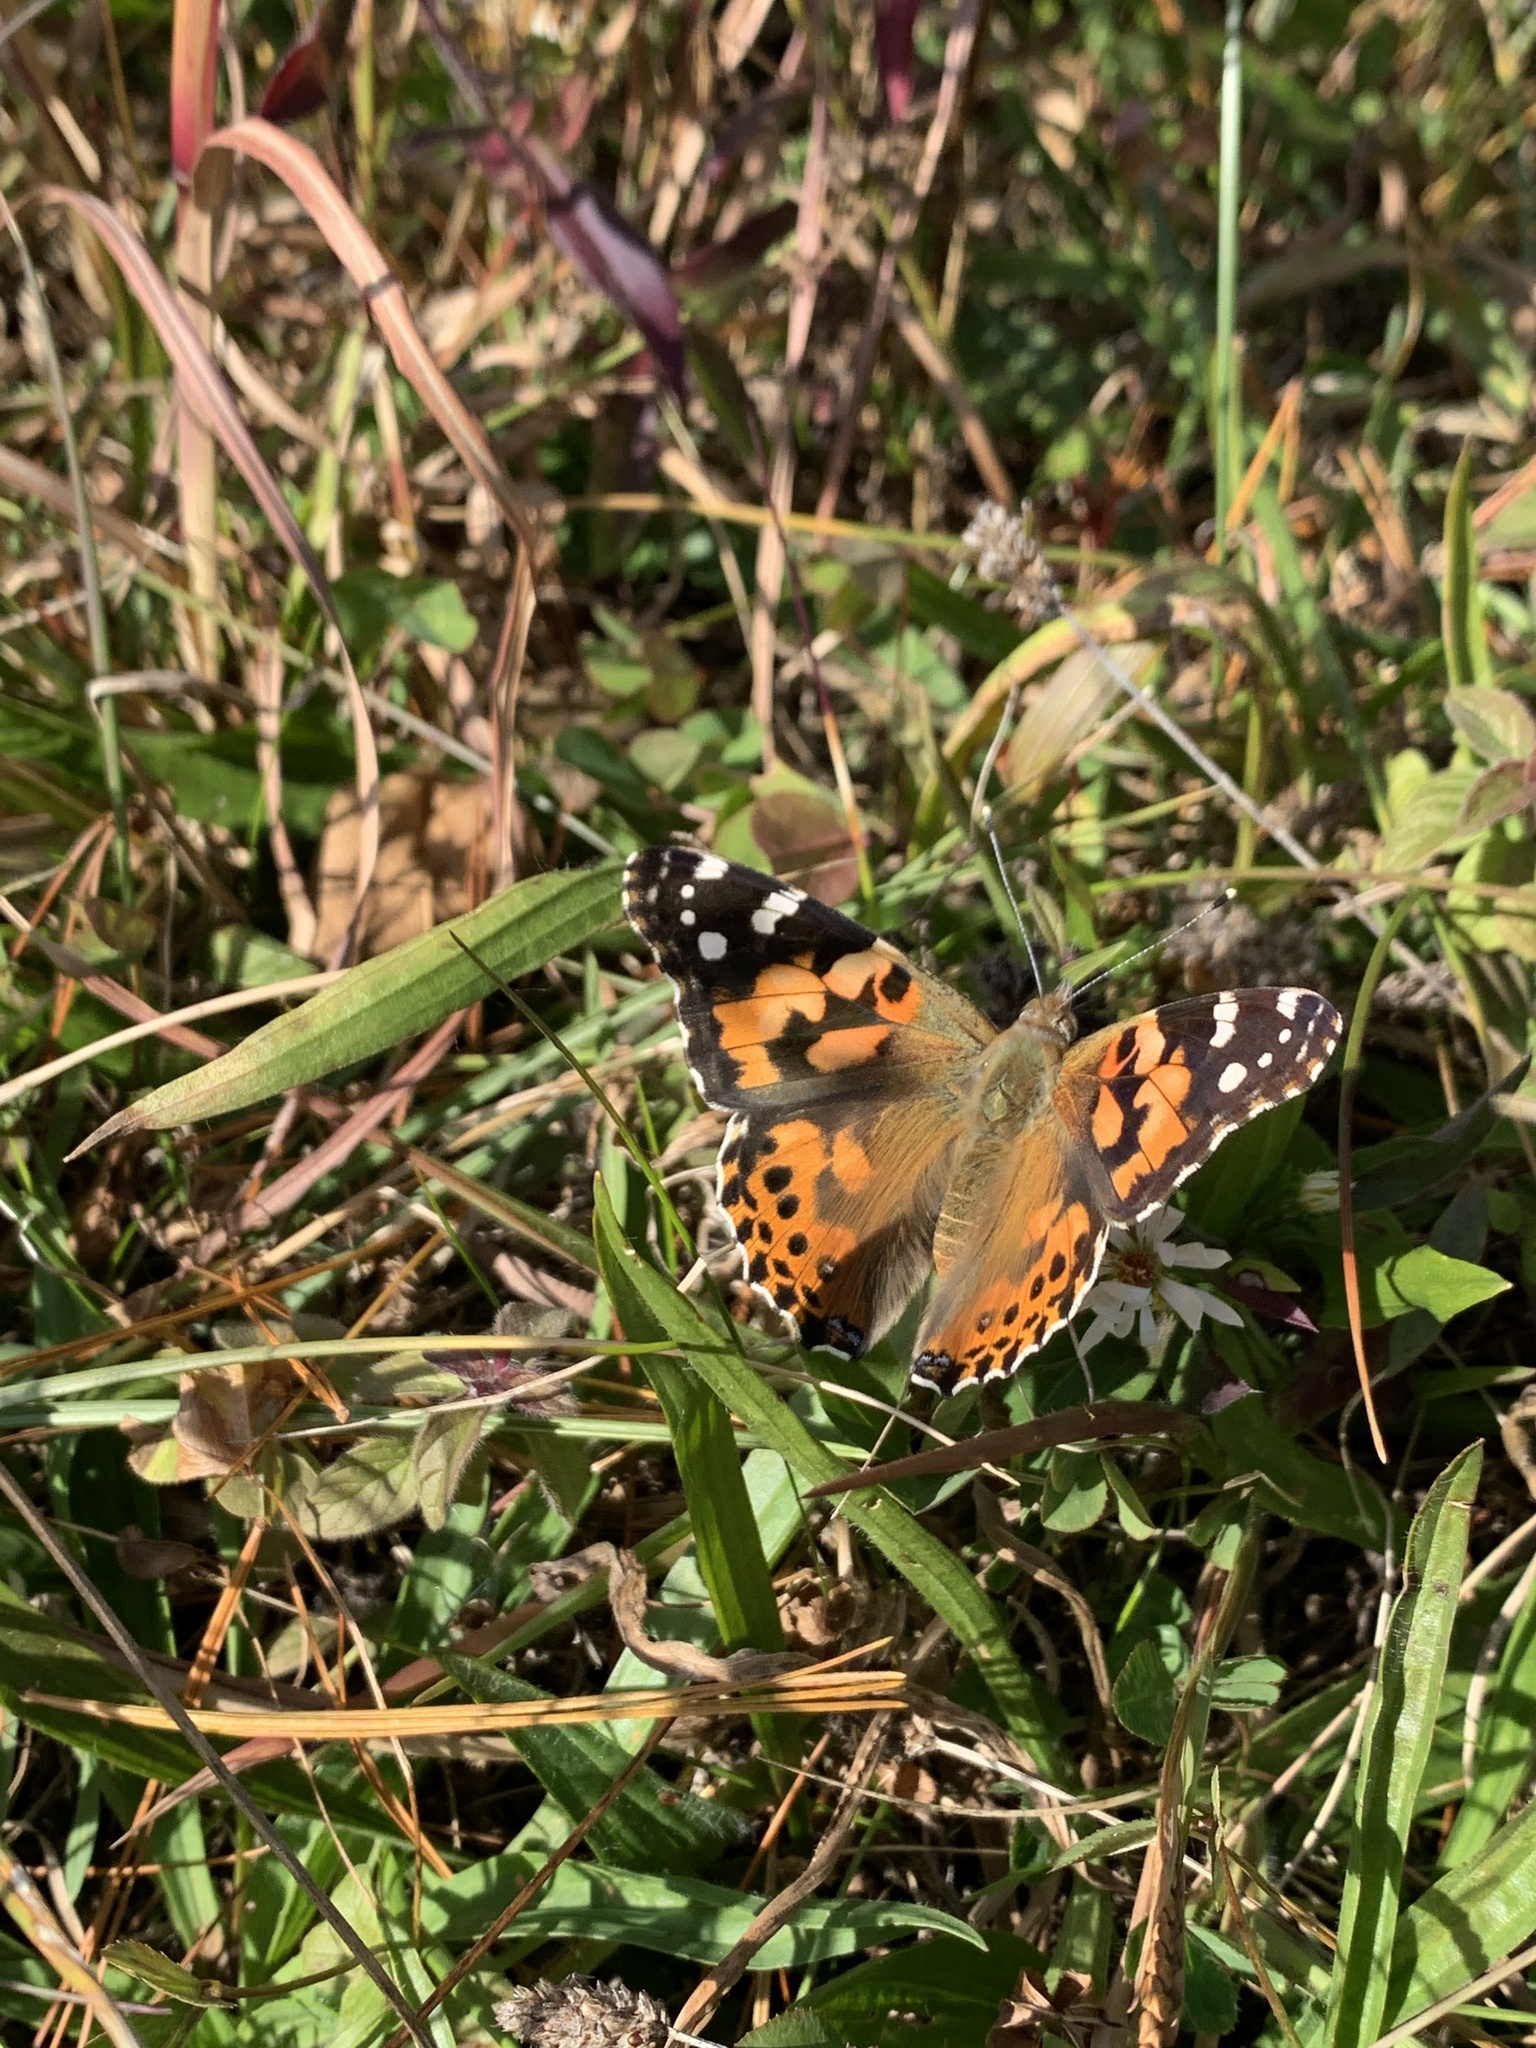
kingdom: Animalia
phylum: Arthropoda
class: Insecta
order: Lepidoptera
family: Nymphalidae
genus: Vanessa
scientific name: Vanessa cardui
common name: Painted lady
